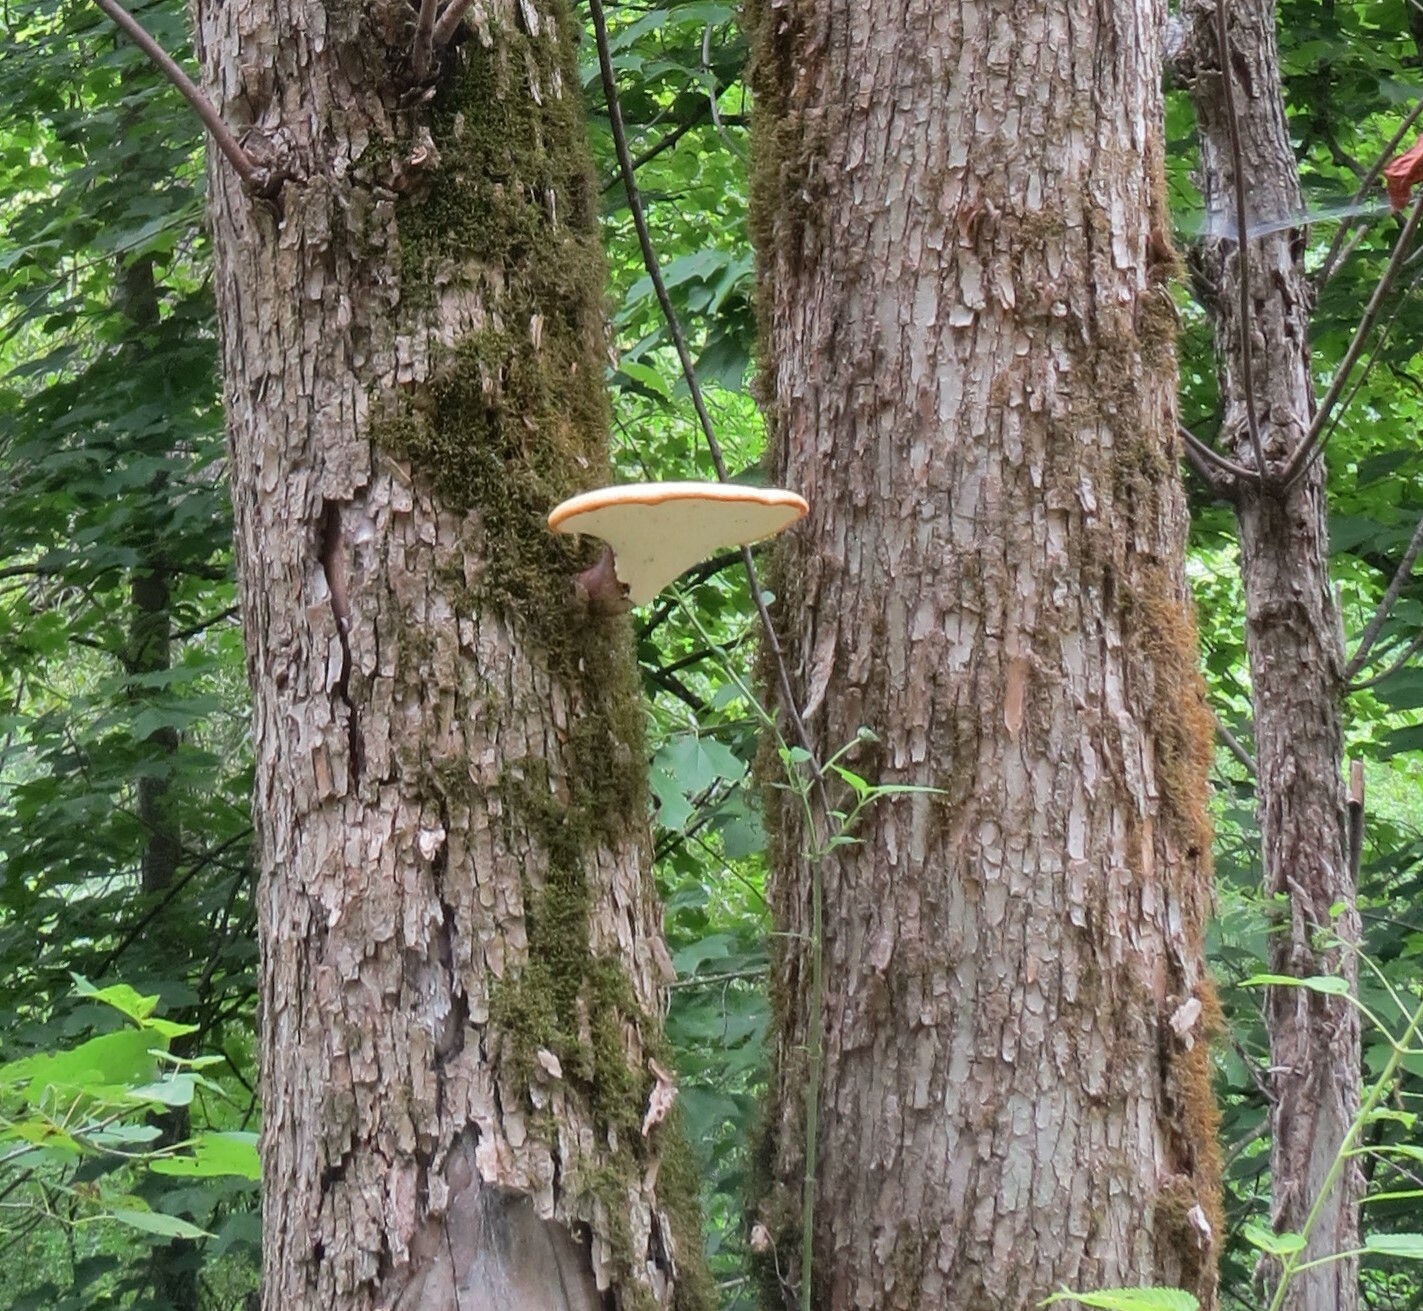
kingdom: Fungi
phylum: Basidiomycota
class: Agaricomycetes
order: Polyporales
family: Polyporaceae
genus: Cerioporus
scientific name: Cerioporus squamosus
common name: Dryad's saddle
